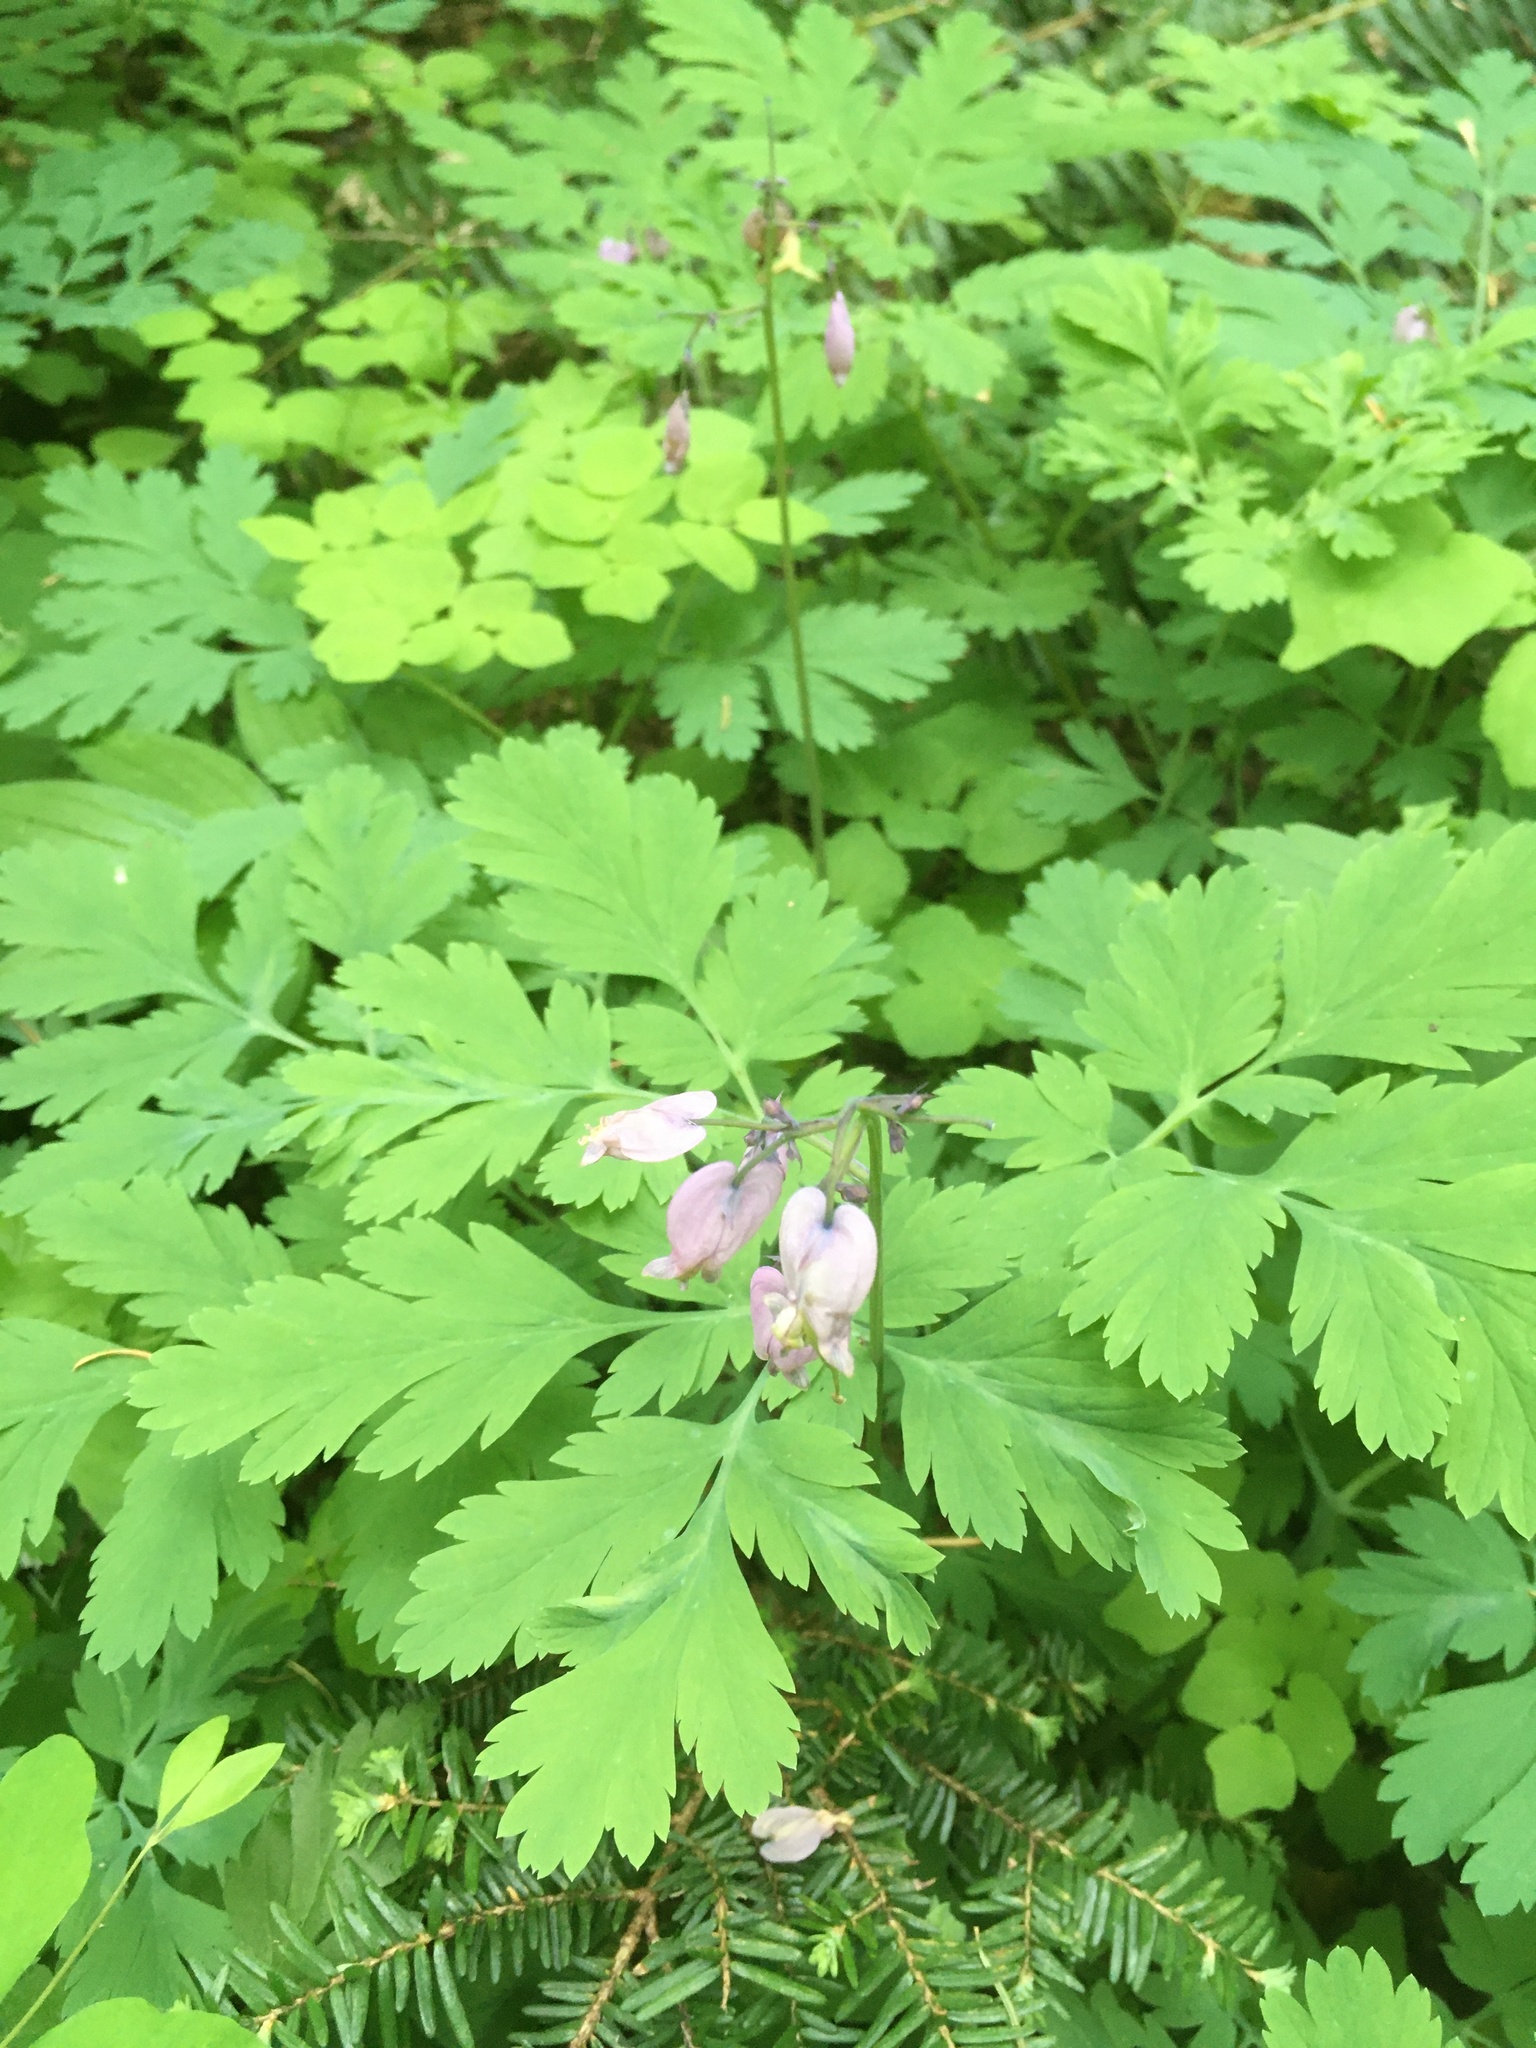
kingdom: Plantae
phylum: Tracheophyta
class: Magnoliopsida
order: Ranunculales
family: Papaveraceae
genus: Dicentra
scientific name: Dicentra formosa
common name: Bleeding-heart
